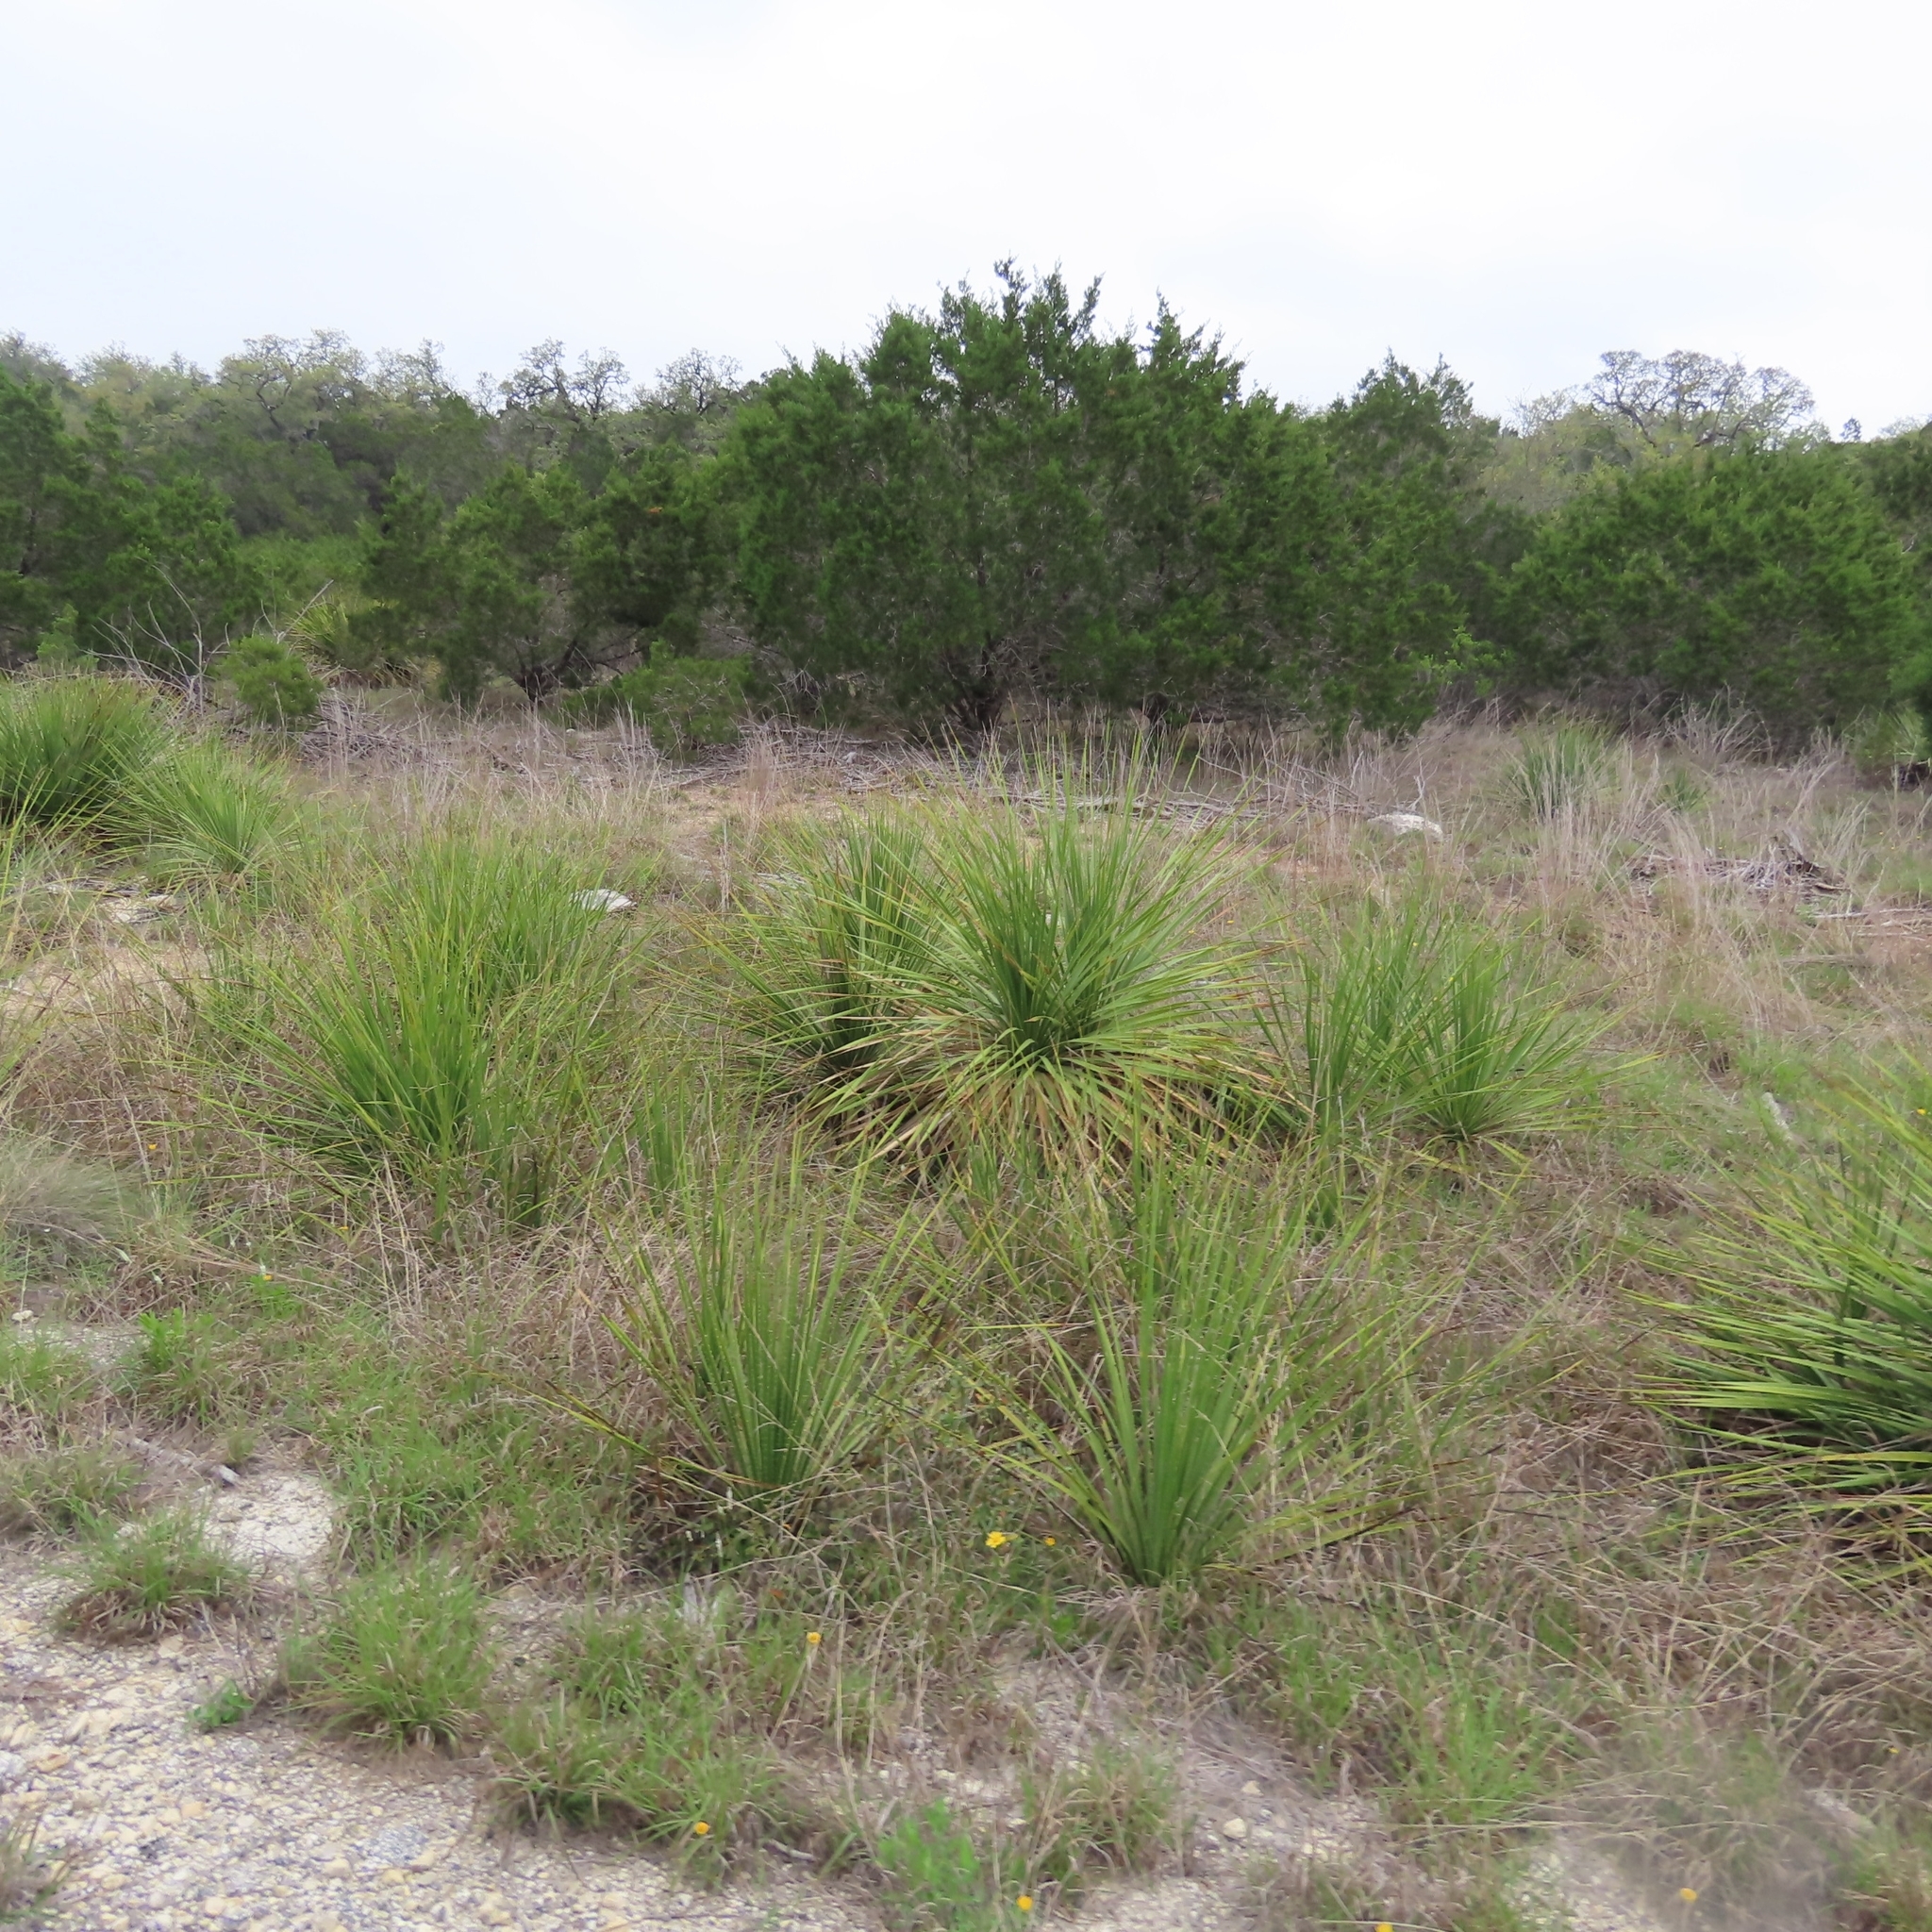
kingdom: Plantae
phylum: Tracheophyta
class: Liliopsida
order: Asparagales
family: Asparagaceae
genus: Dasylirion
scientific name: Dasylirion texanum
